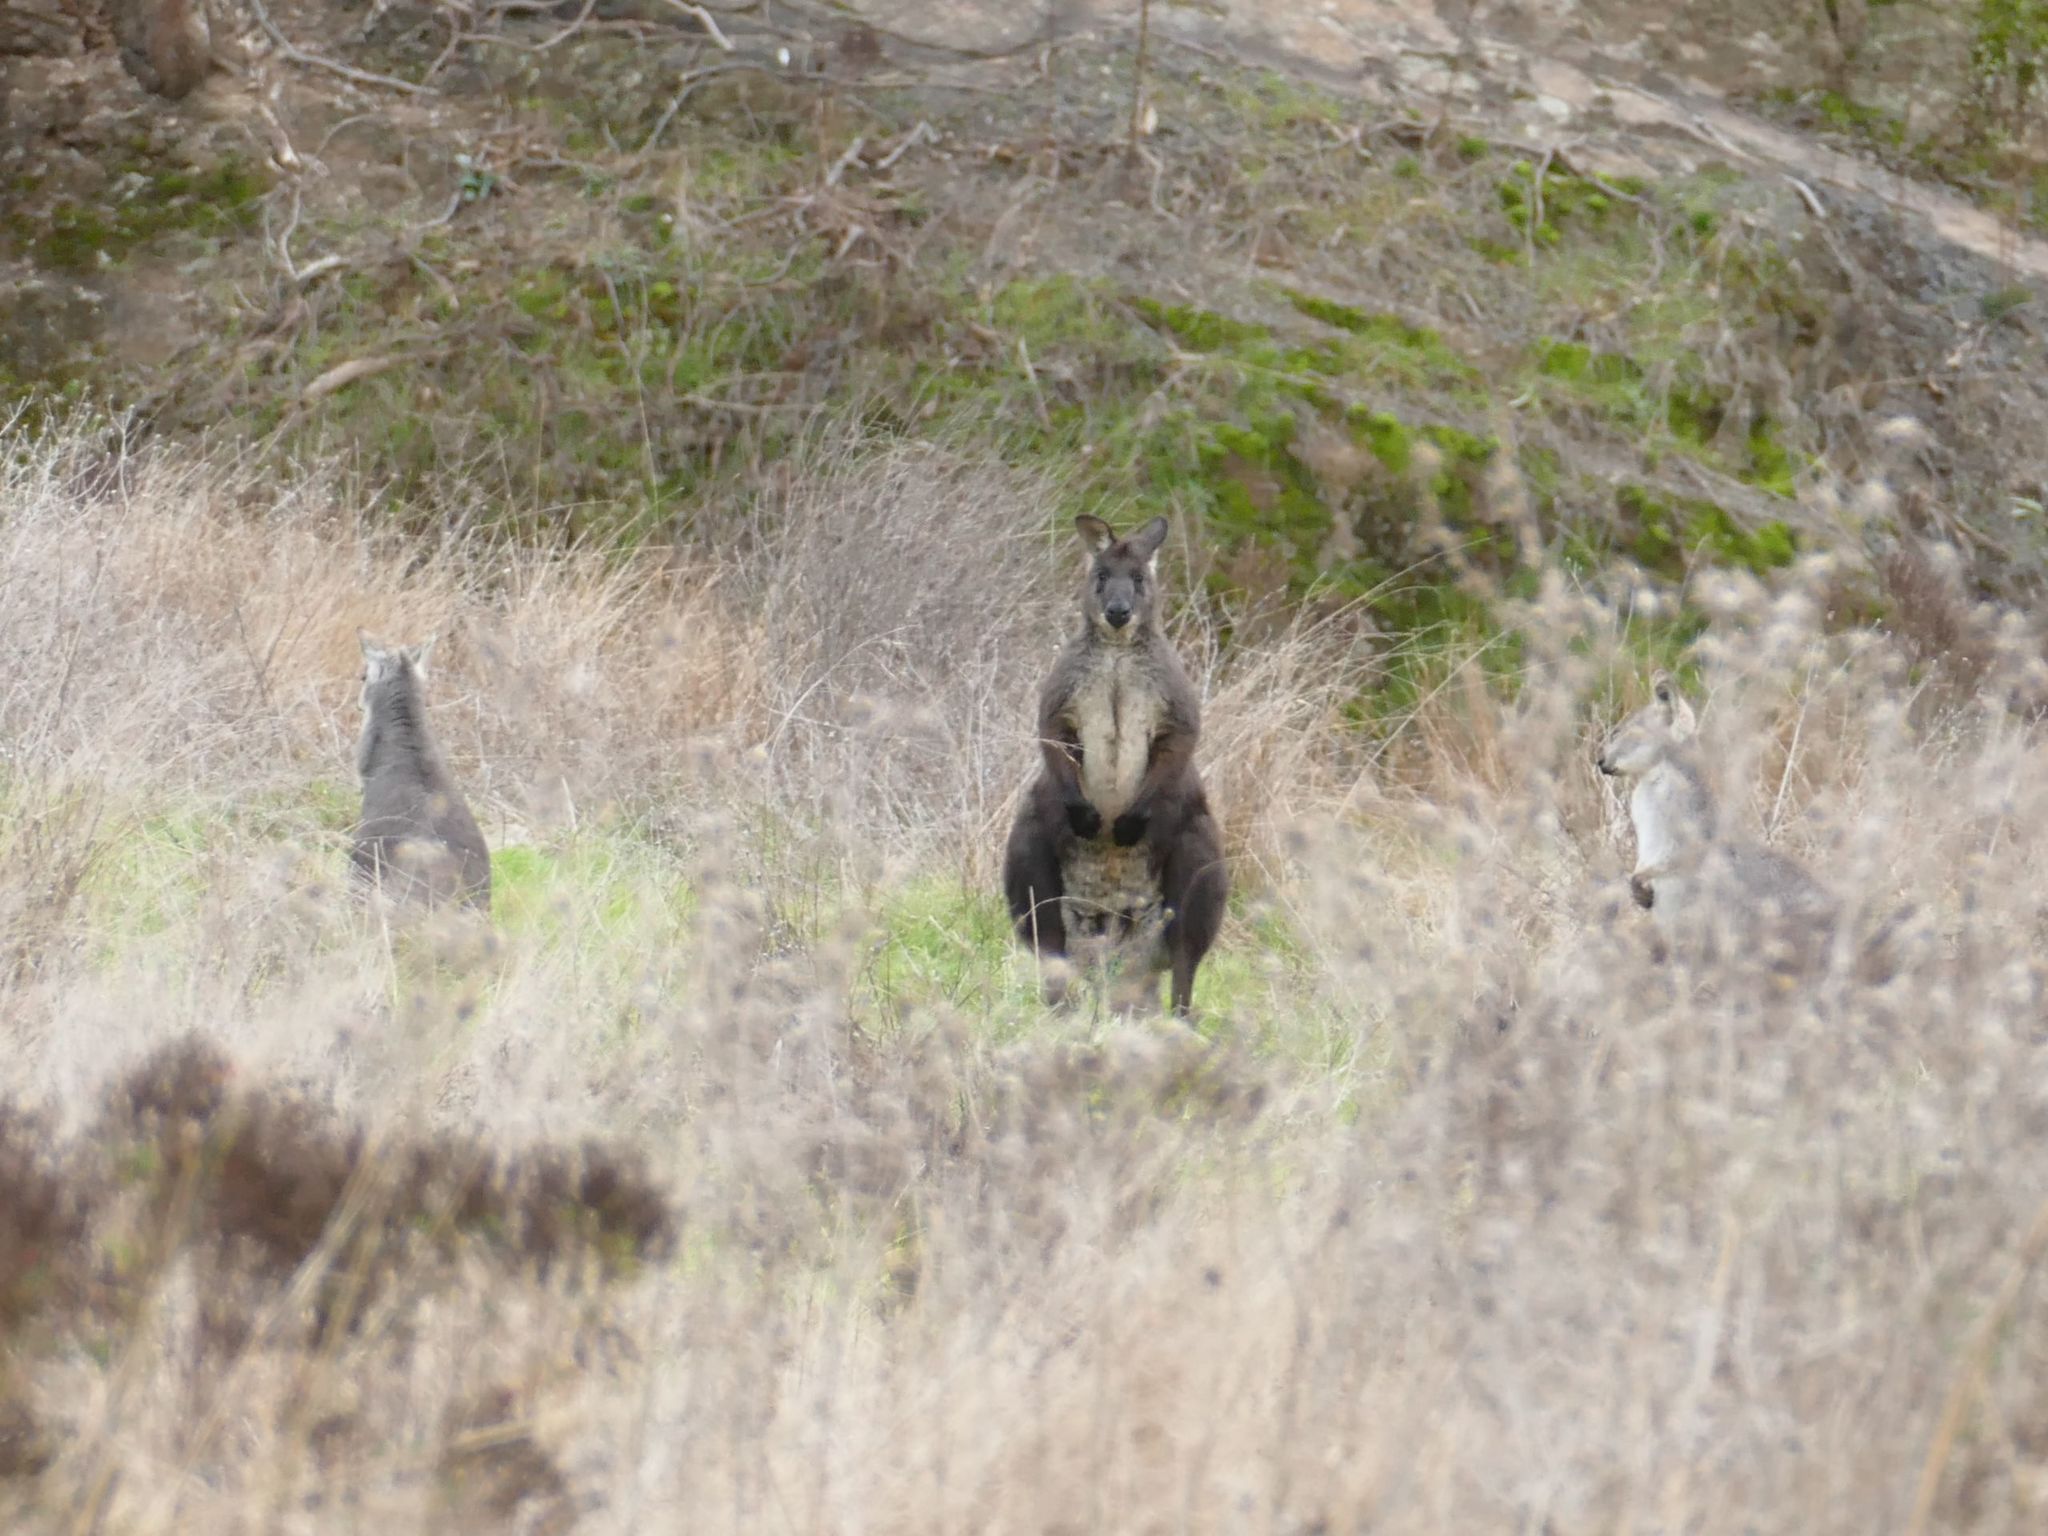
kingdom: Animalia
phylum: Chordata
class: Mammalia
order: Diprotodontia
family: Macropodidae
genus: Macropus
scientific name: Macropus robustus
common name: Eastern wallaroo
